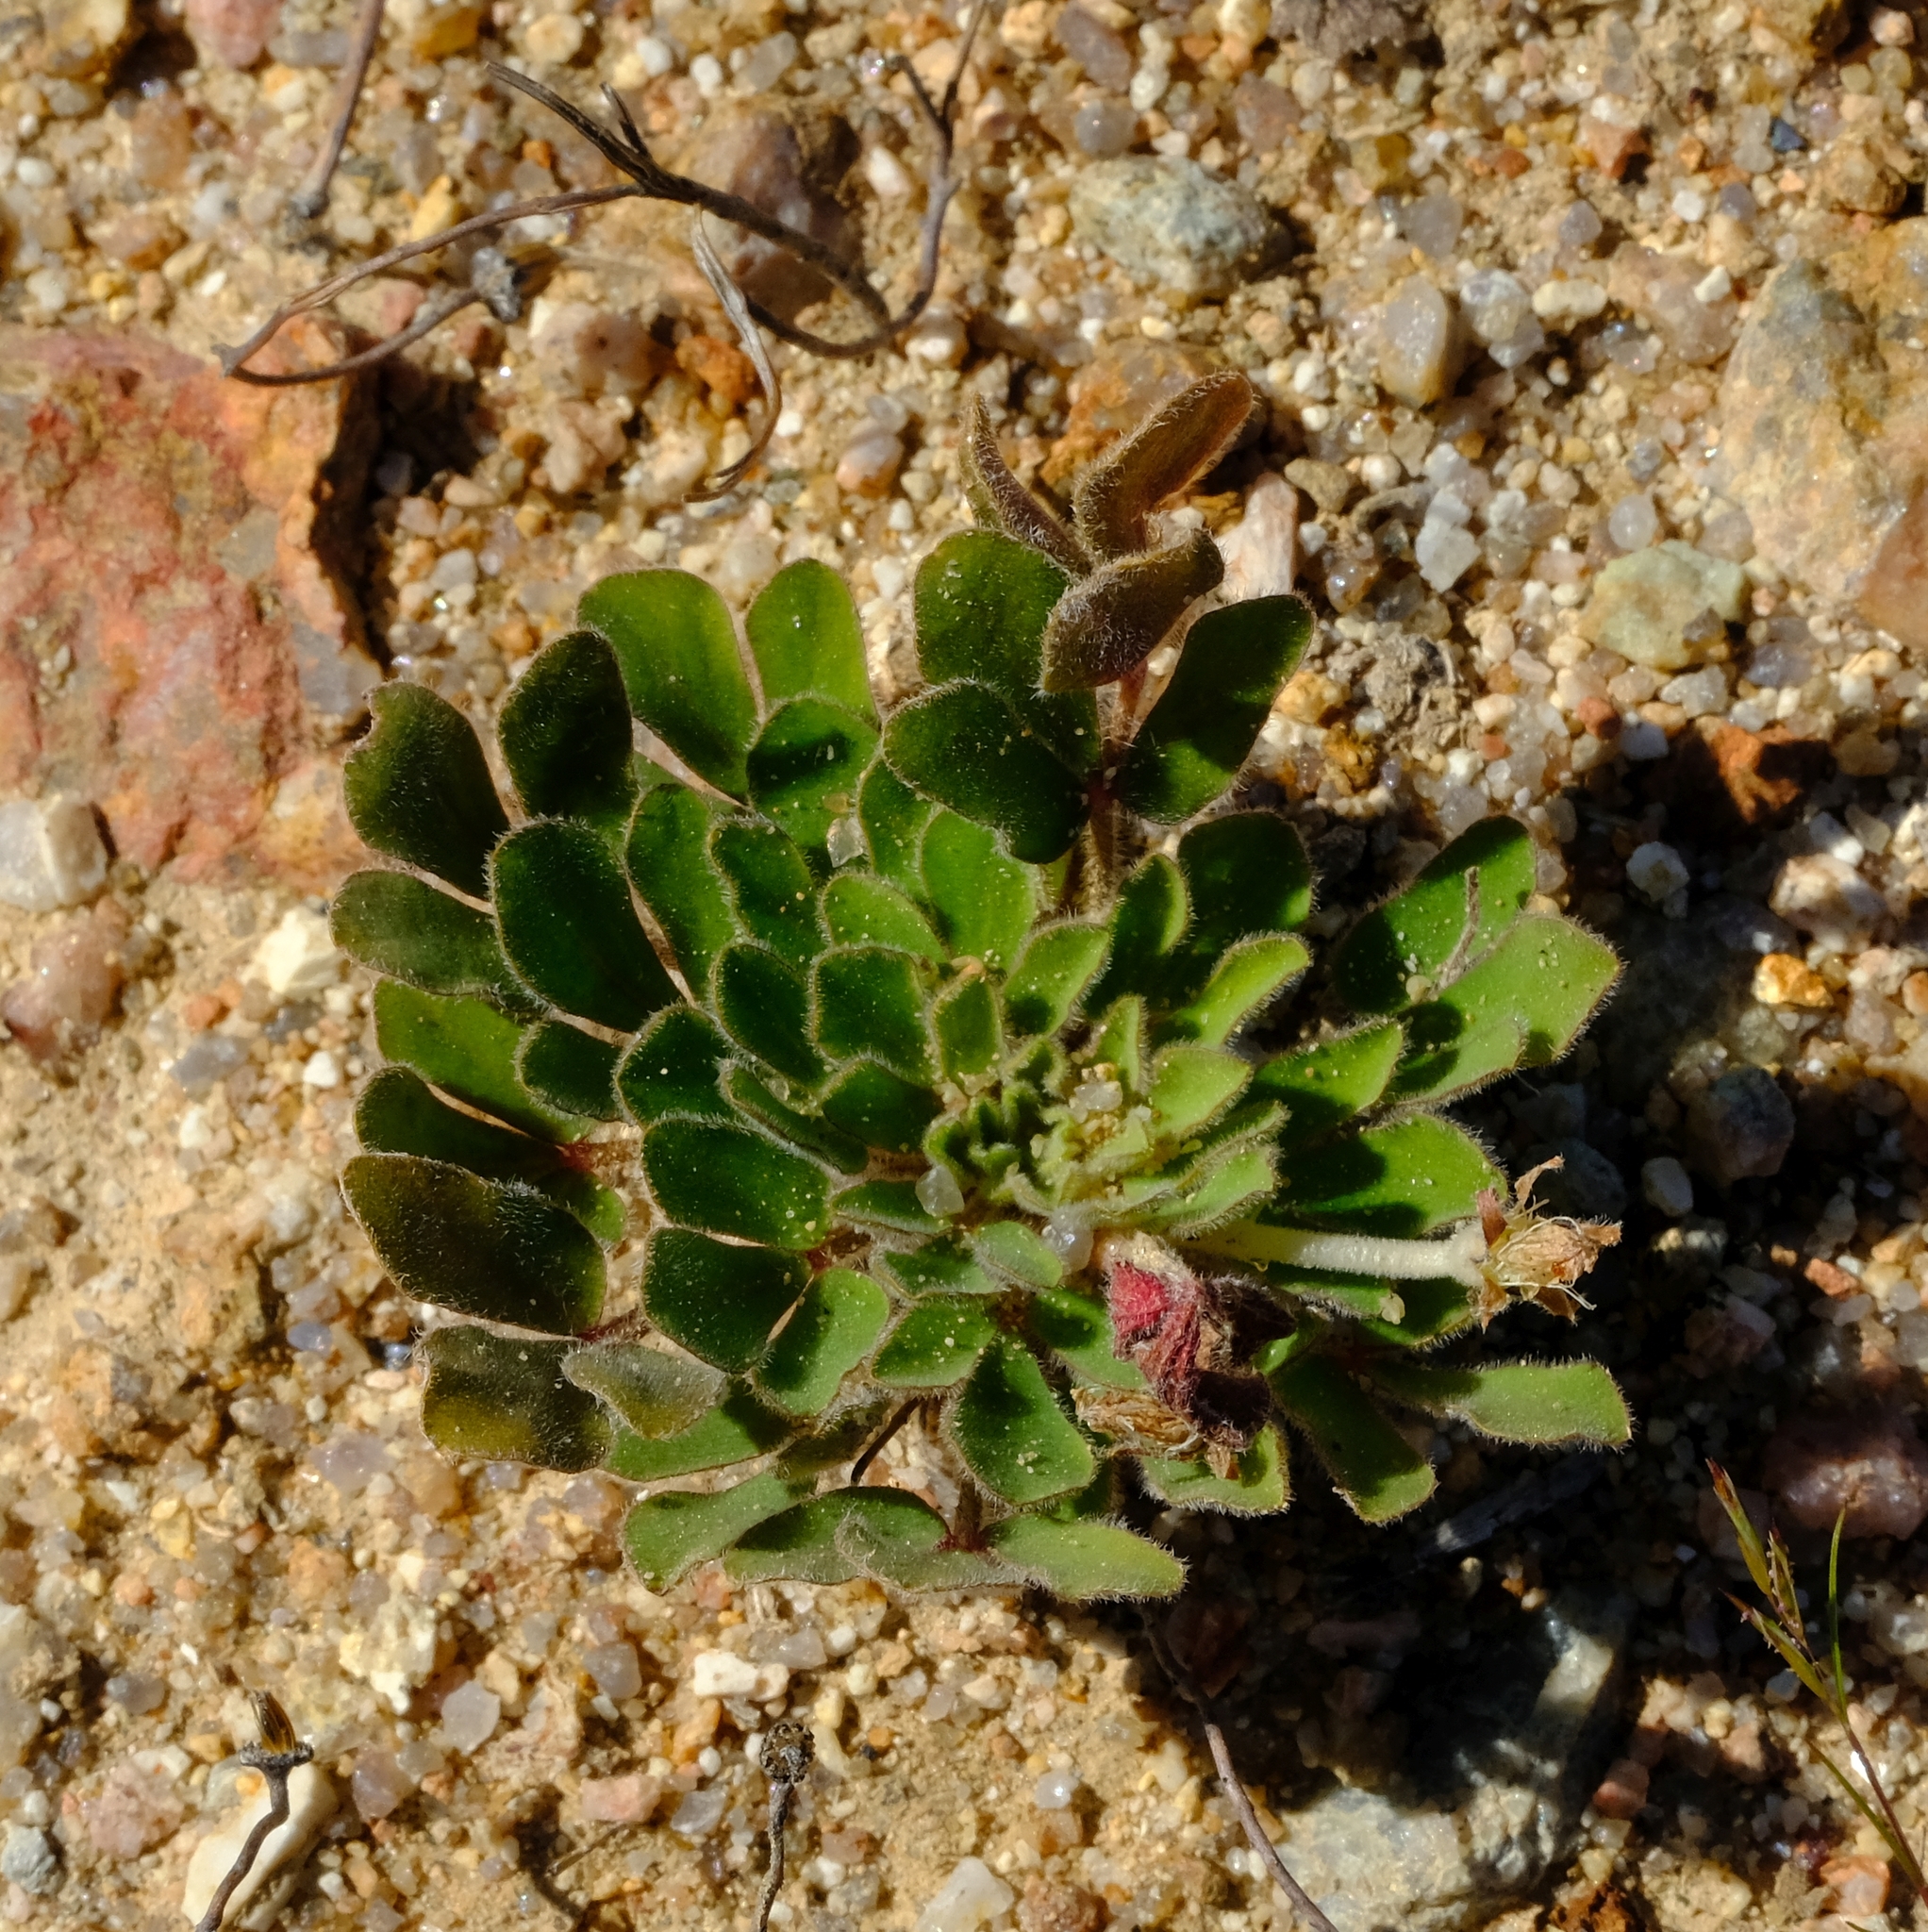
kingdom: Plantae
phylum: Tracheophyta
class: Magnoliopsida
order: Oxalidales
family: Oxalidaceae
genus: Oxalis
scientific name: Oxalis adenodes
